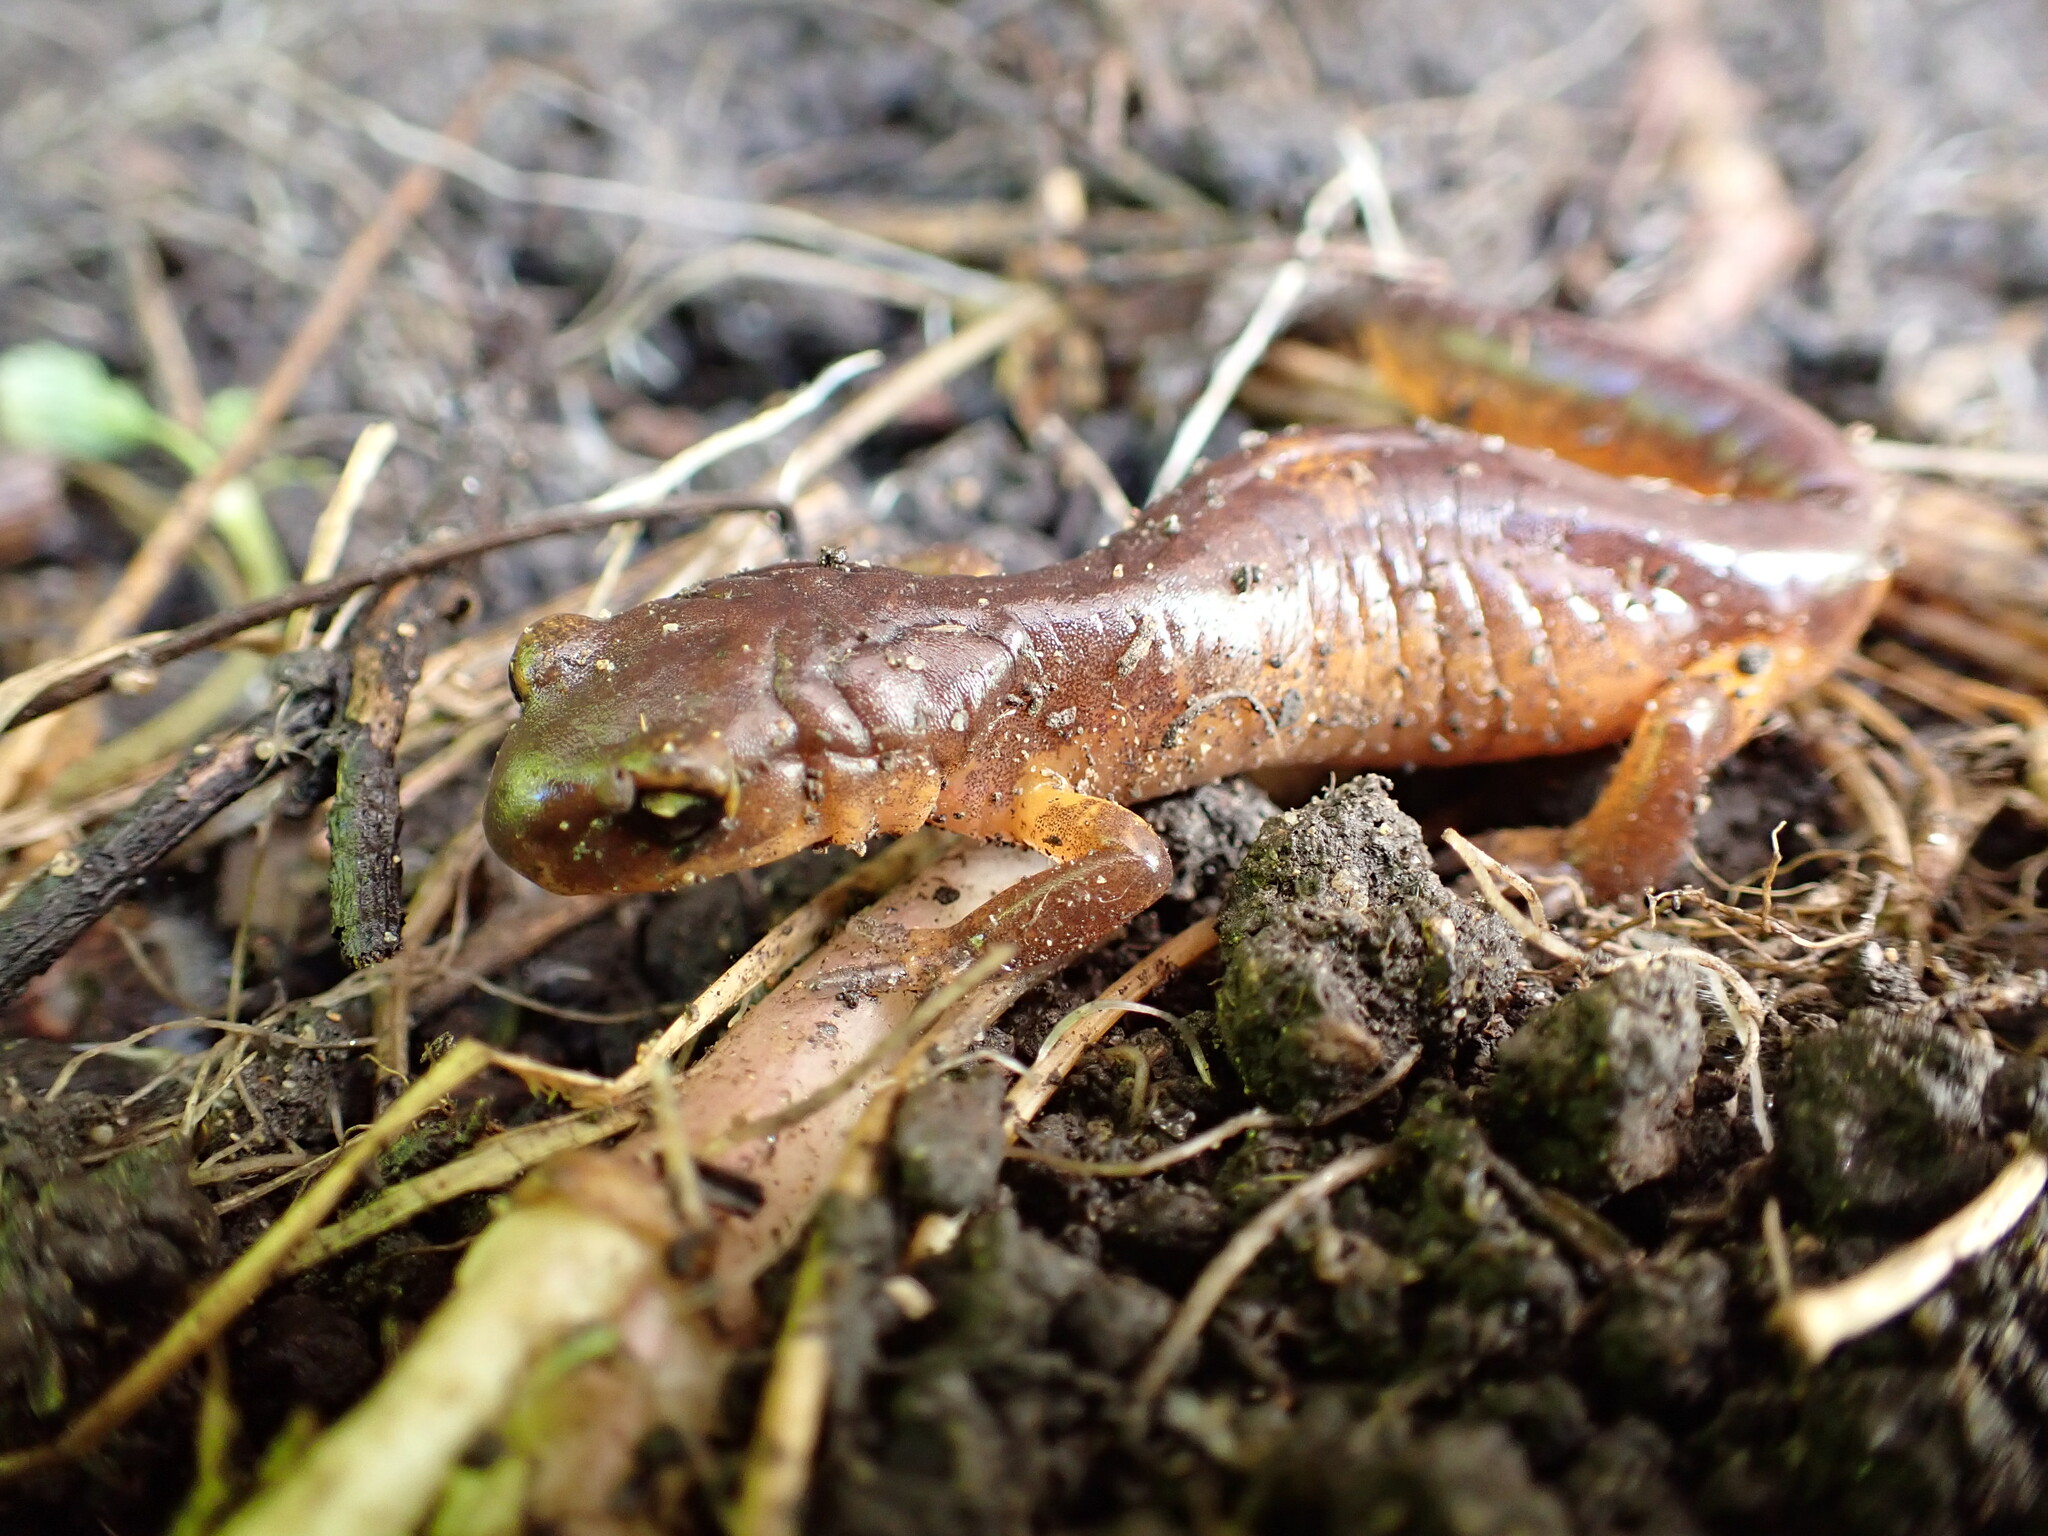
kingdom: Animalia
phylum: Chordata
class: Amphibia
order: Caudata
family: Plethodontidae
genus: Ensatina
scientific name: Ensatina eschscholtzii
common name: Ensatina
